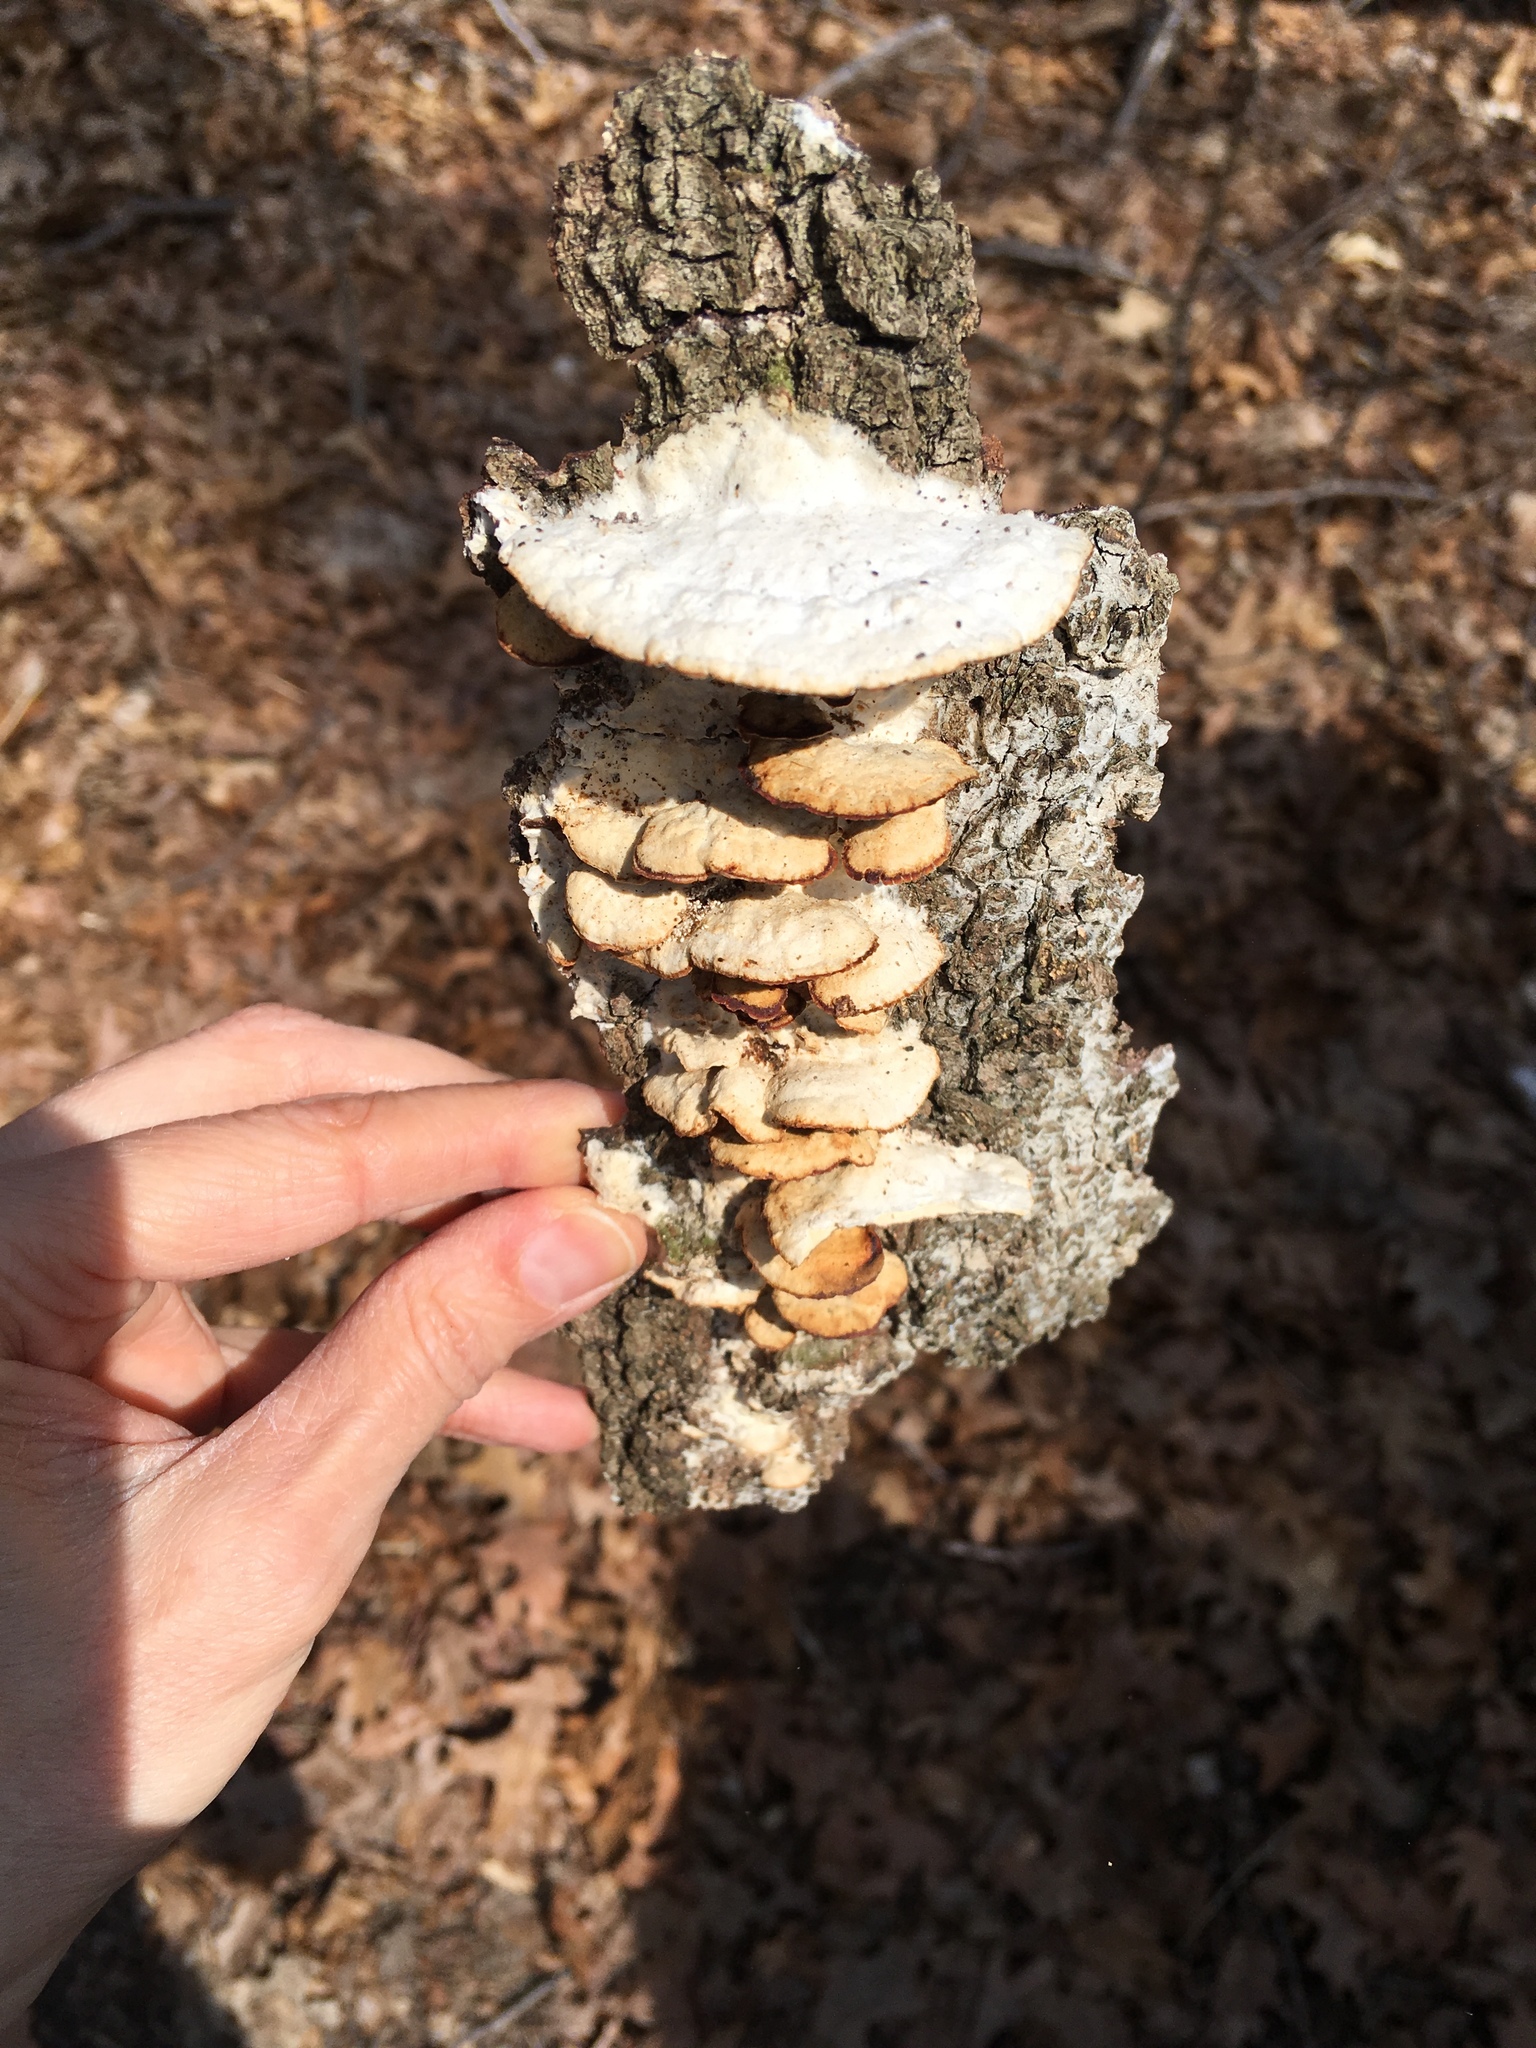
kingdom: Fungi
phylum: Basidiomycota
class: Agaricomycetes
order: Polyporales
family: Irpicaceae
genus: Vitreoporus
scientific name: Vitreoporus dichrous
